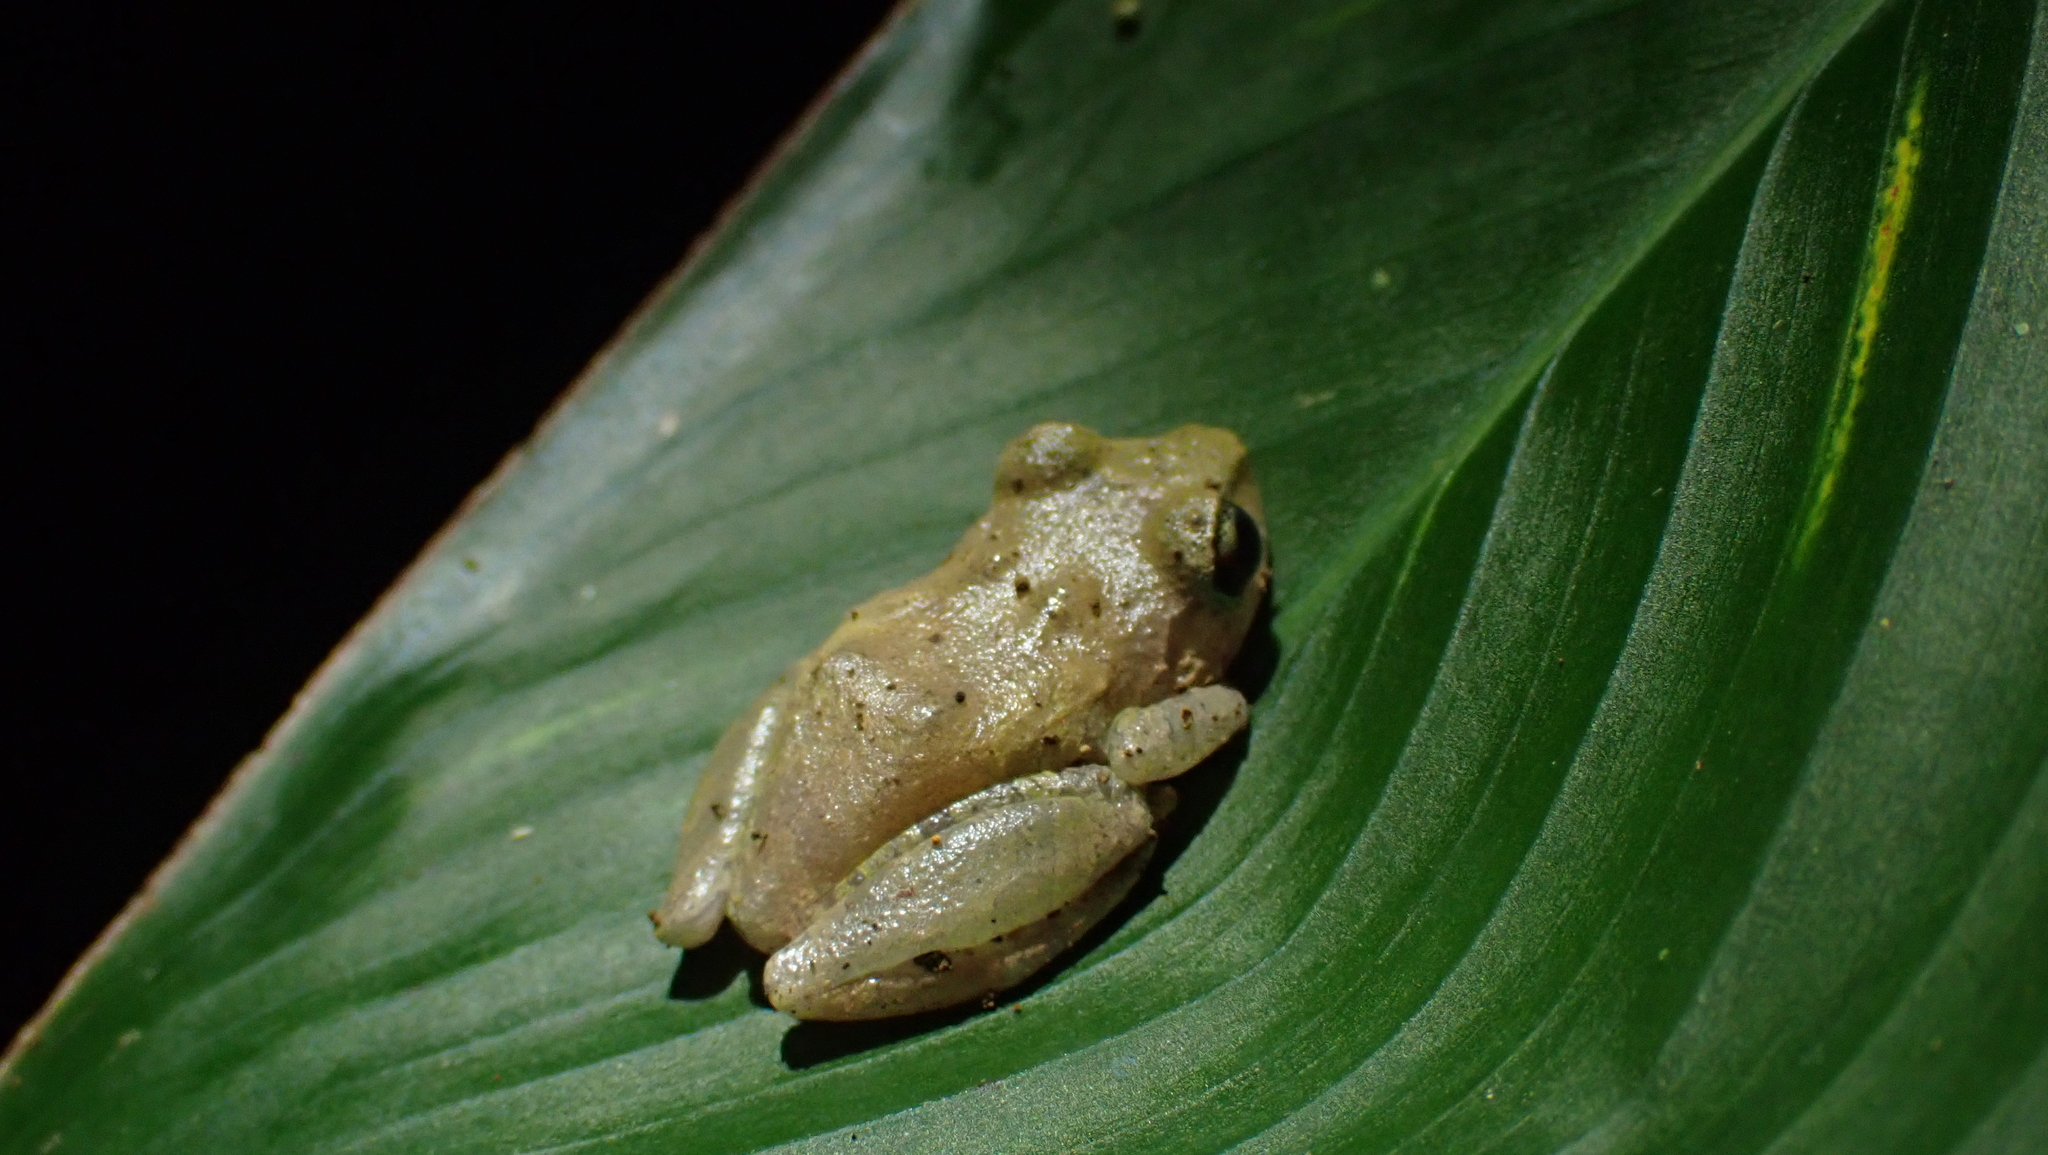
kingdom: Animalia
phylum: Chordata
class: Amphibia
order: Anura
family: Craugastoridae
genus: Pristimantis
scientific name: Pristimantis ridens
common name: Rio san juan robber frog
